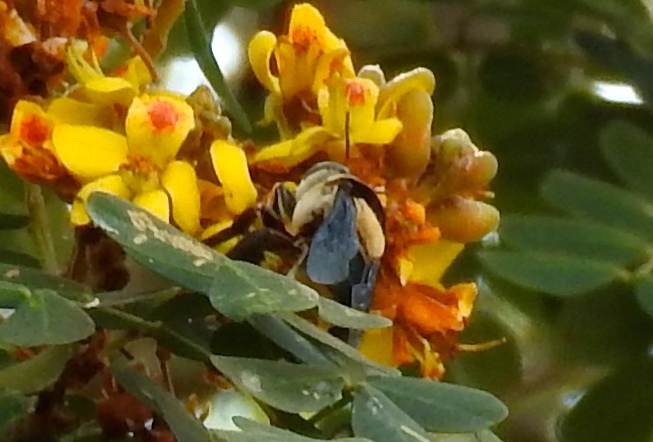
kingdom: Animalia
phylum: Arthropoda
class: Insecta
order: Hymenoptera
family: Apidae
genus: Centris
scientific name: Centris flavofasciata
